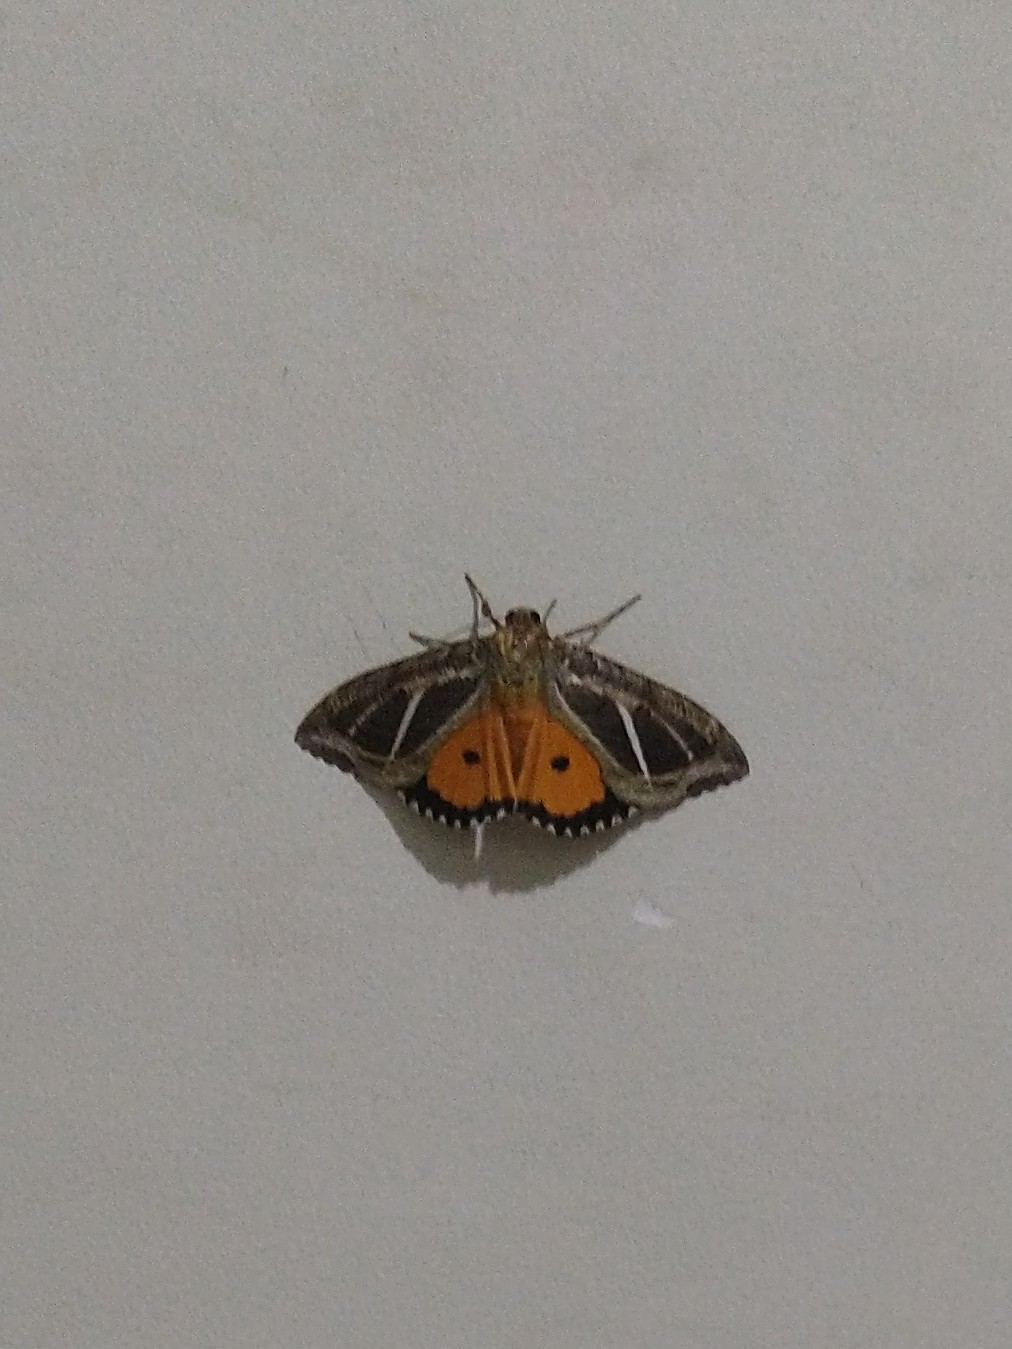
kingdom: Animalia
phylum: Arthropoda
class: Insecta
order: Lepidoptera
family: Erebidae
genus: Eudocima
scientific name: Eudocima materna
